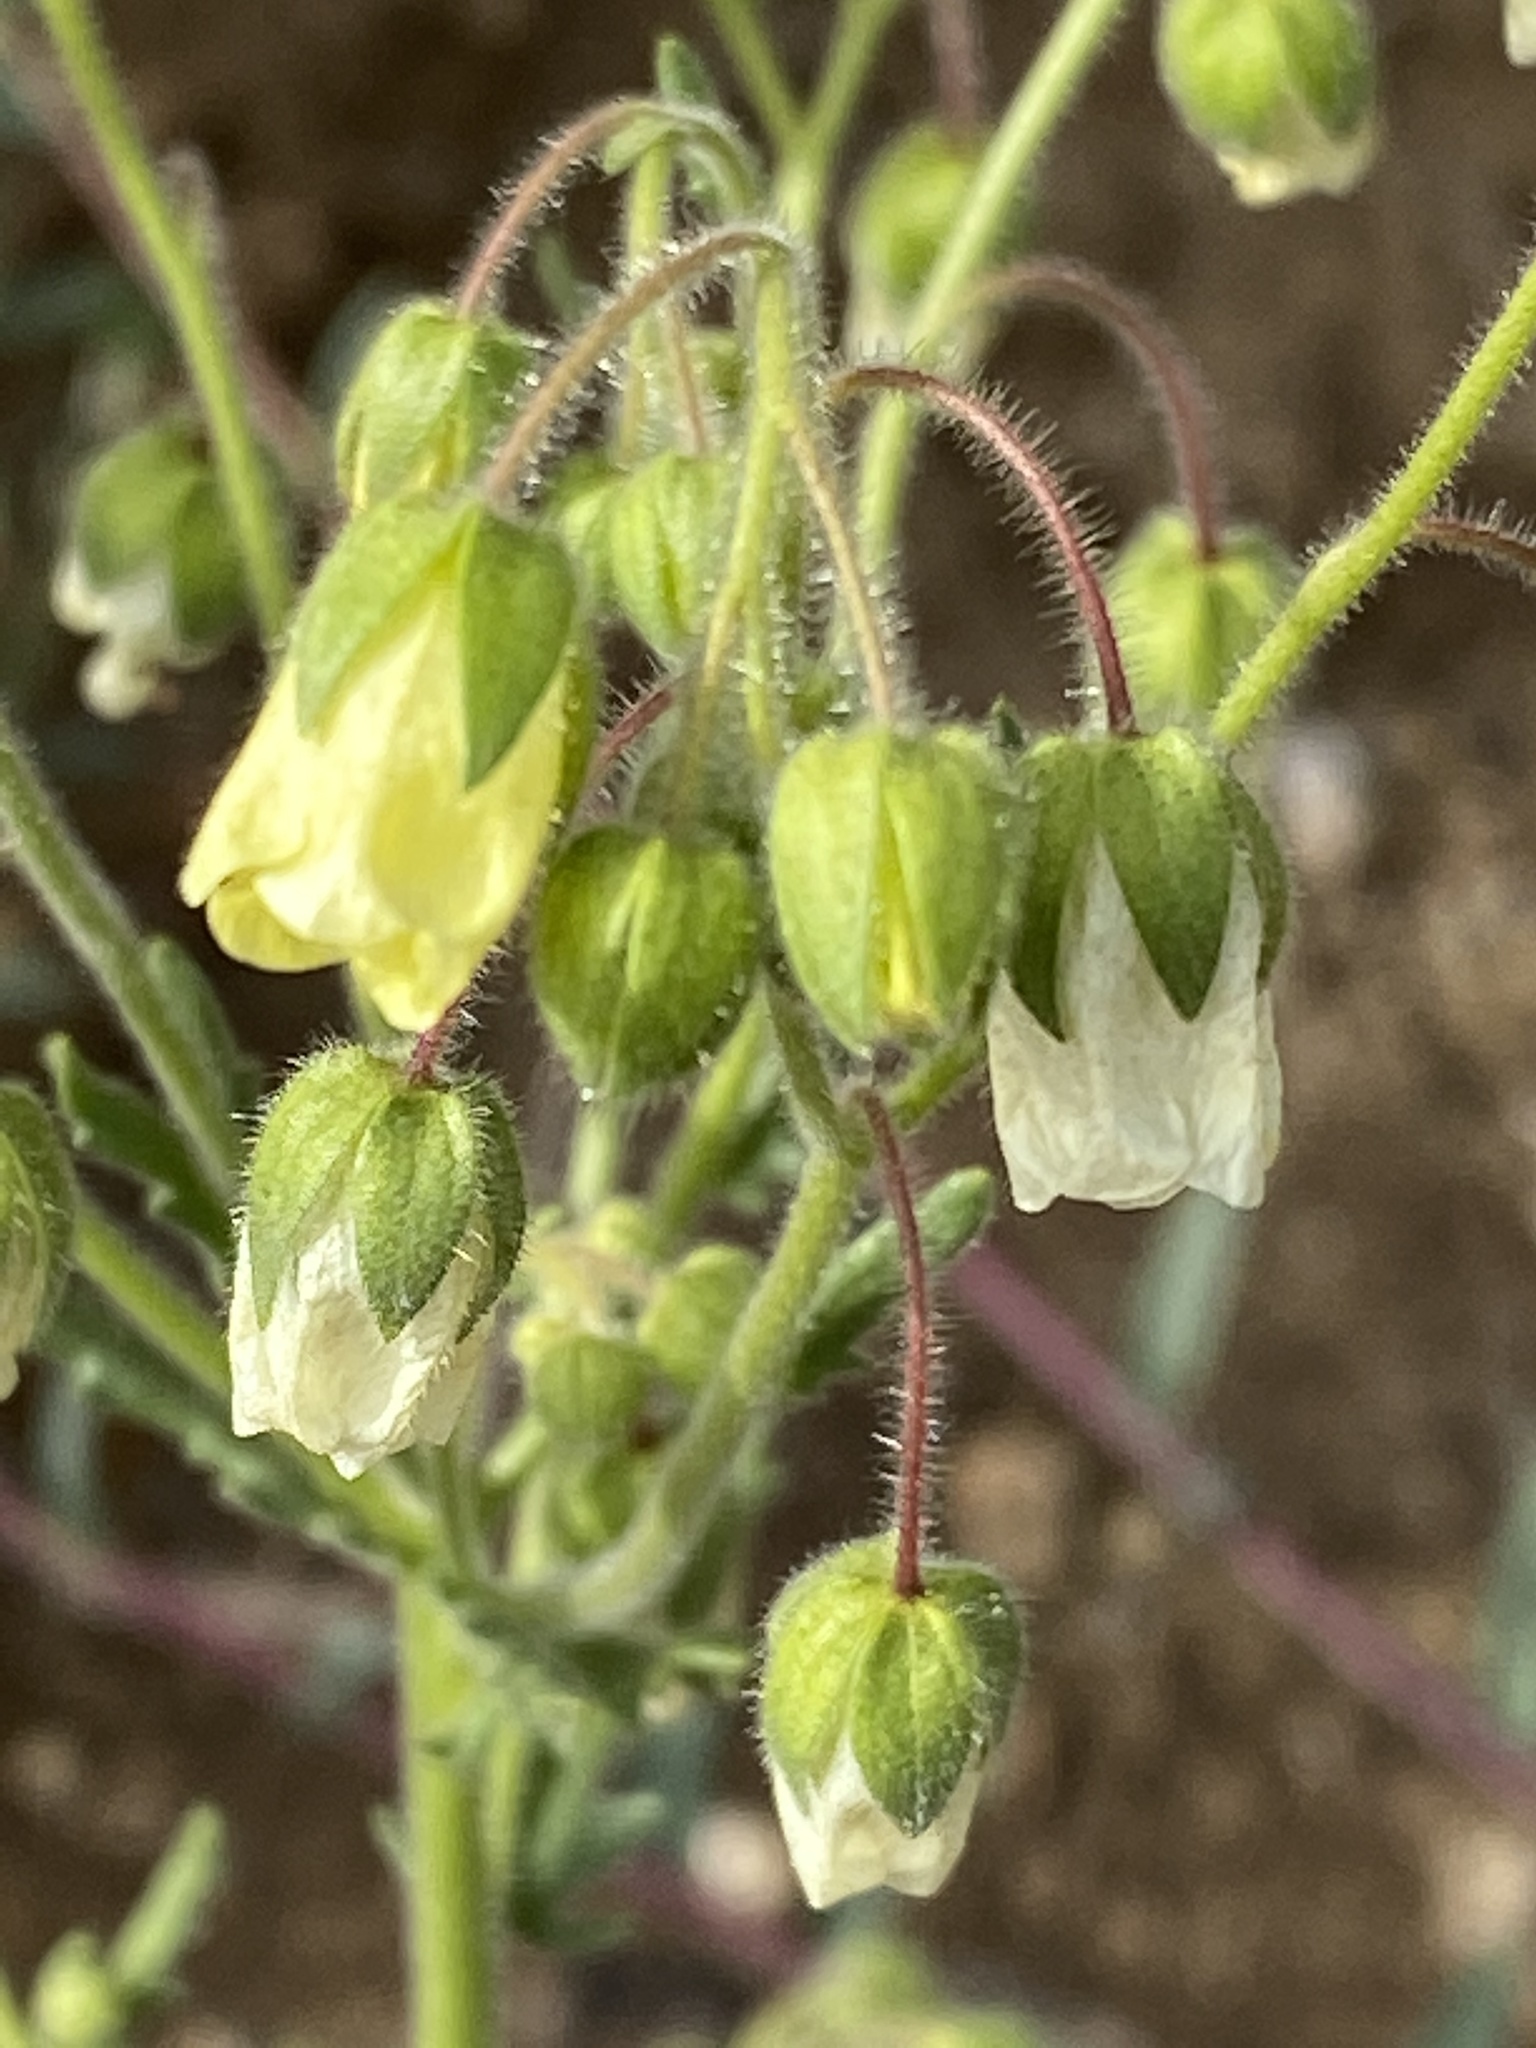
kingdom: Plantae
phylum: Tracheophyta
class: Magnoliopsida
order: Boraginales
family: Hydrophyllaceae
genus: Emmenanthe
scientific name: Emmenanthe penduliflora
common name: Whispering-bells
